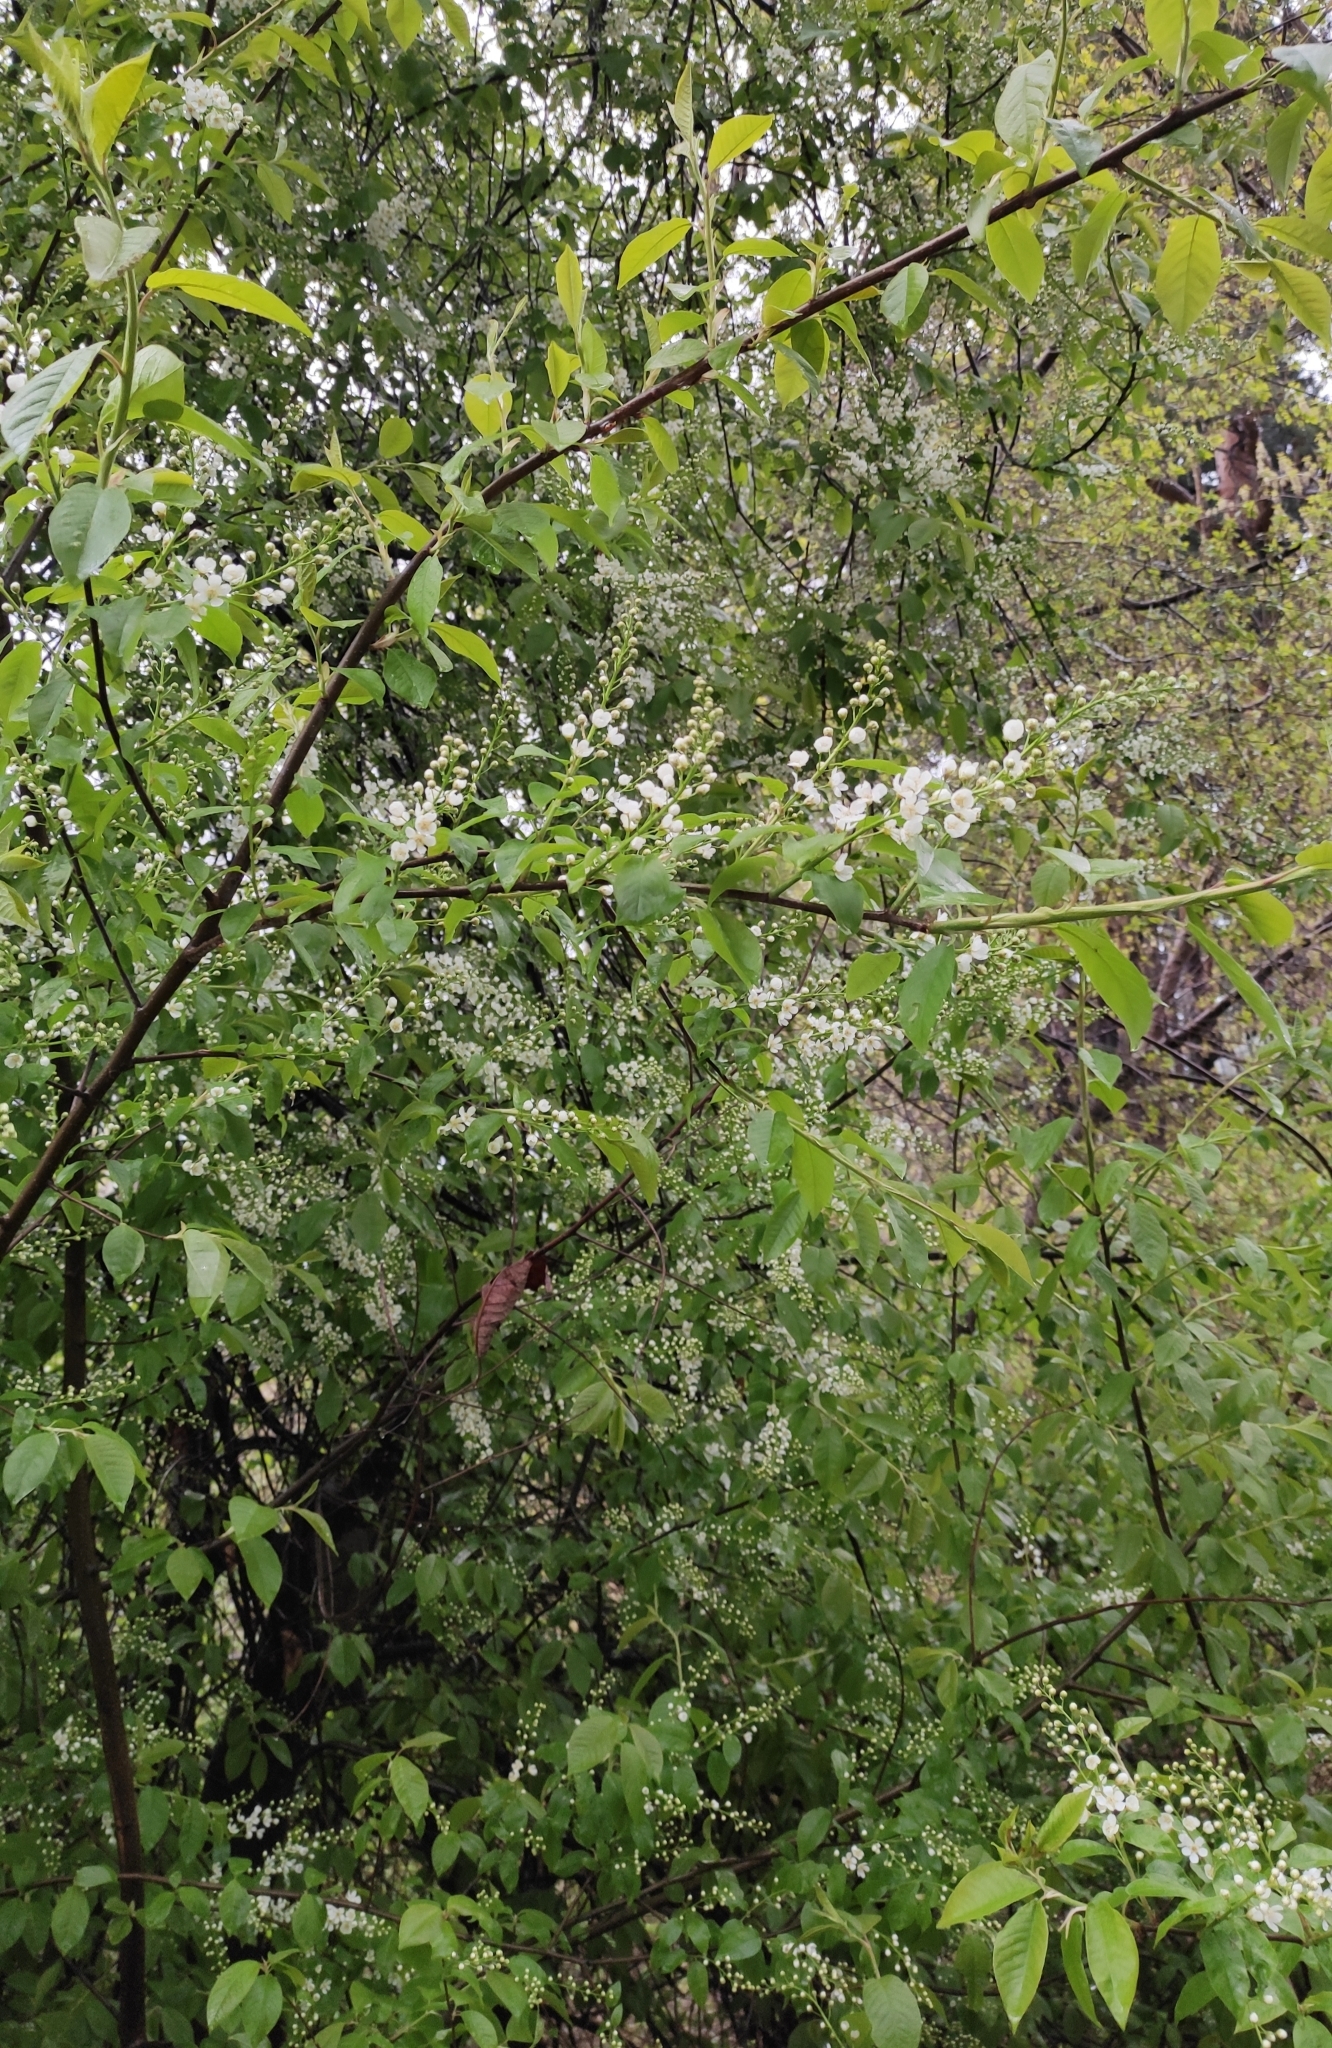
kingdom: Plantae
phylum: Tracheophyta
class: Magnoliopsida
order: Rosales
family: Rosaceae
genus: Prunus
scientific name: Prunus padus
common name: Bird cherry
